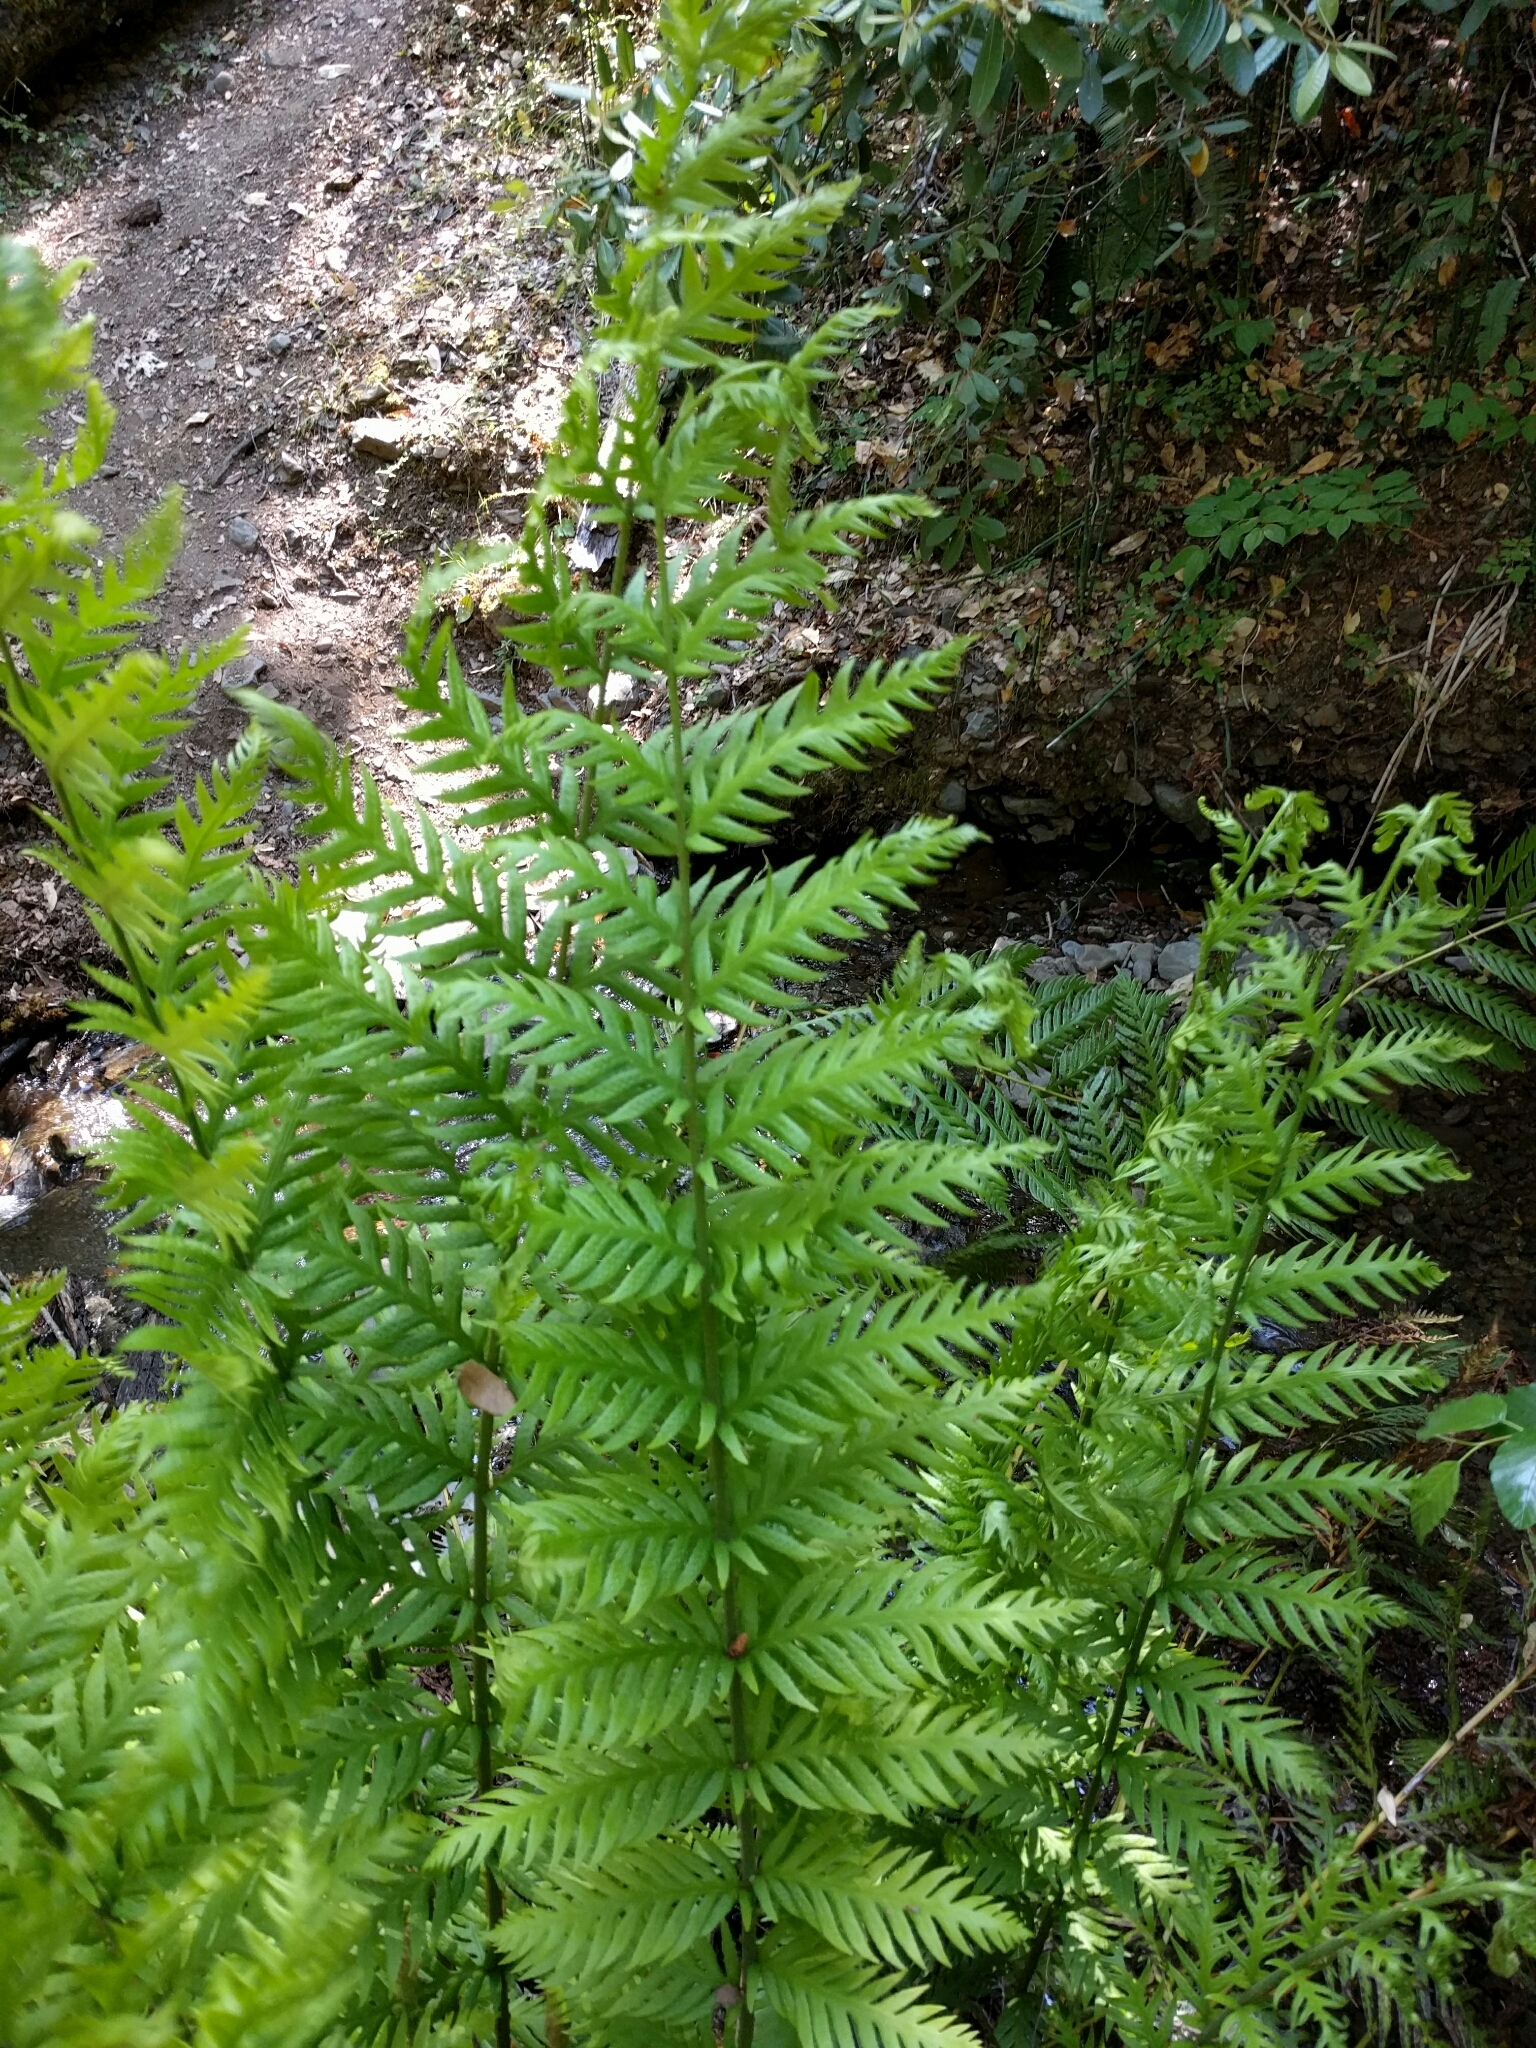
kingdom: Plantae
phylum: Tracheophyta
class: Polypodiopsida
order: Polypodiales
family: Blechnaceae
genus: Woodwardia
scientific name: Woodwardia fimbriata
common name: Giant chain fern
